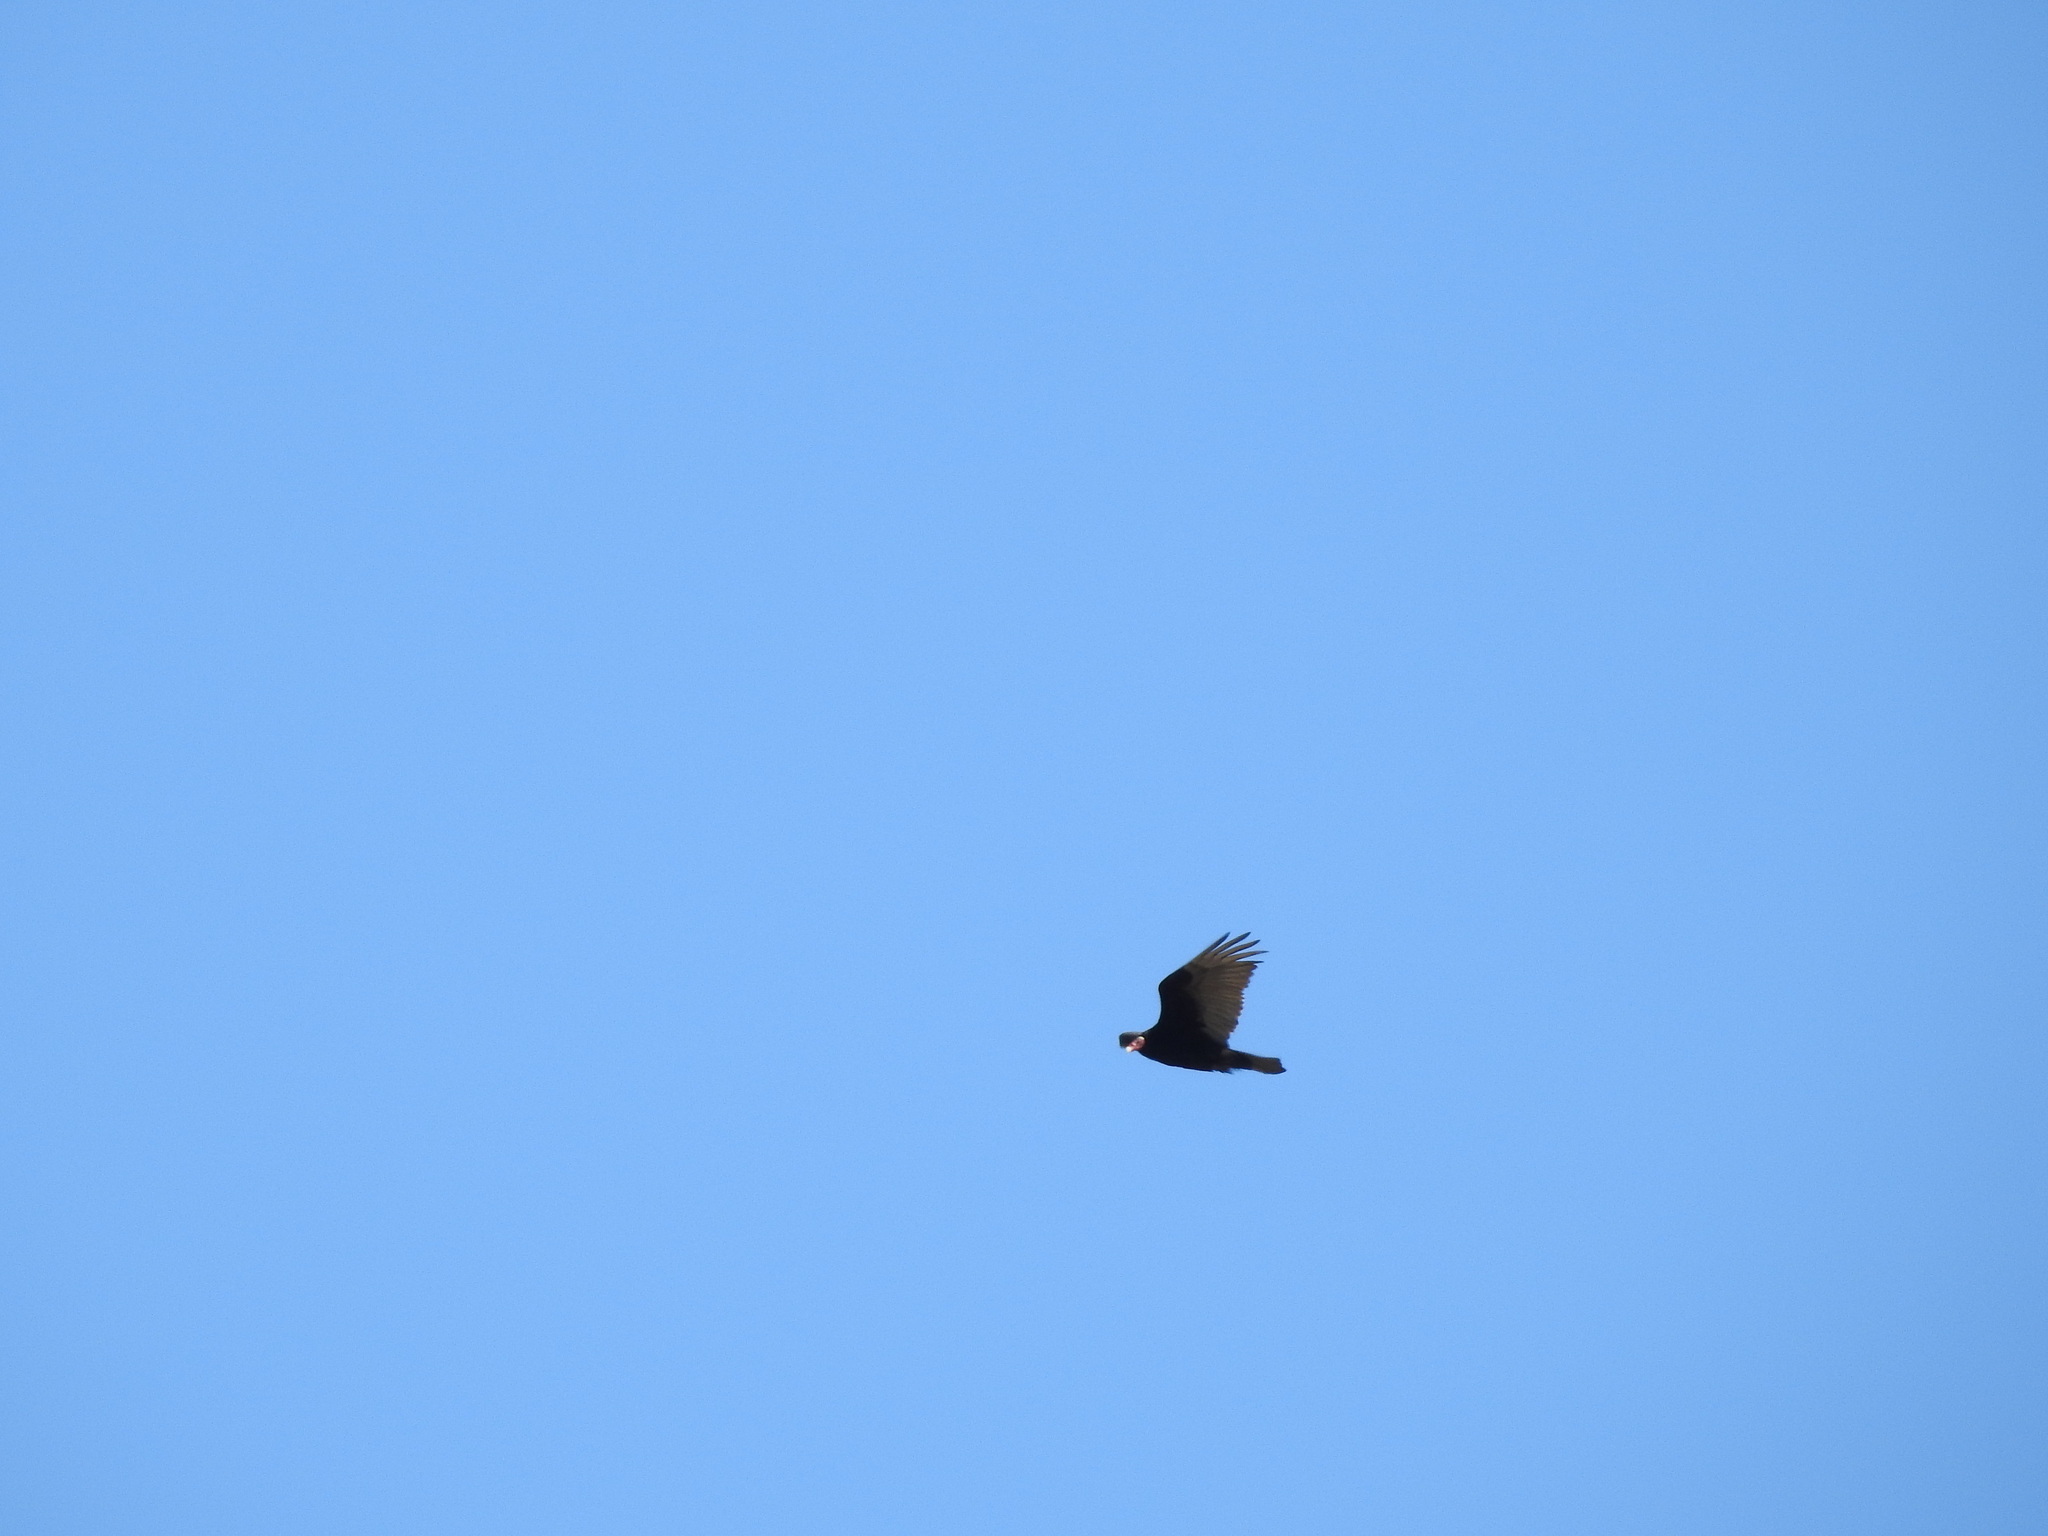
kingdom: Animalia
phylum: Chordata
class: Aves
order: Accipitriformes
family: Cathartidae
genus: Cathartes
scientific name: Cathartes aura
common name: Turkey vulture
